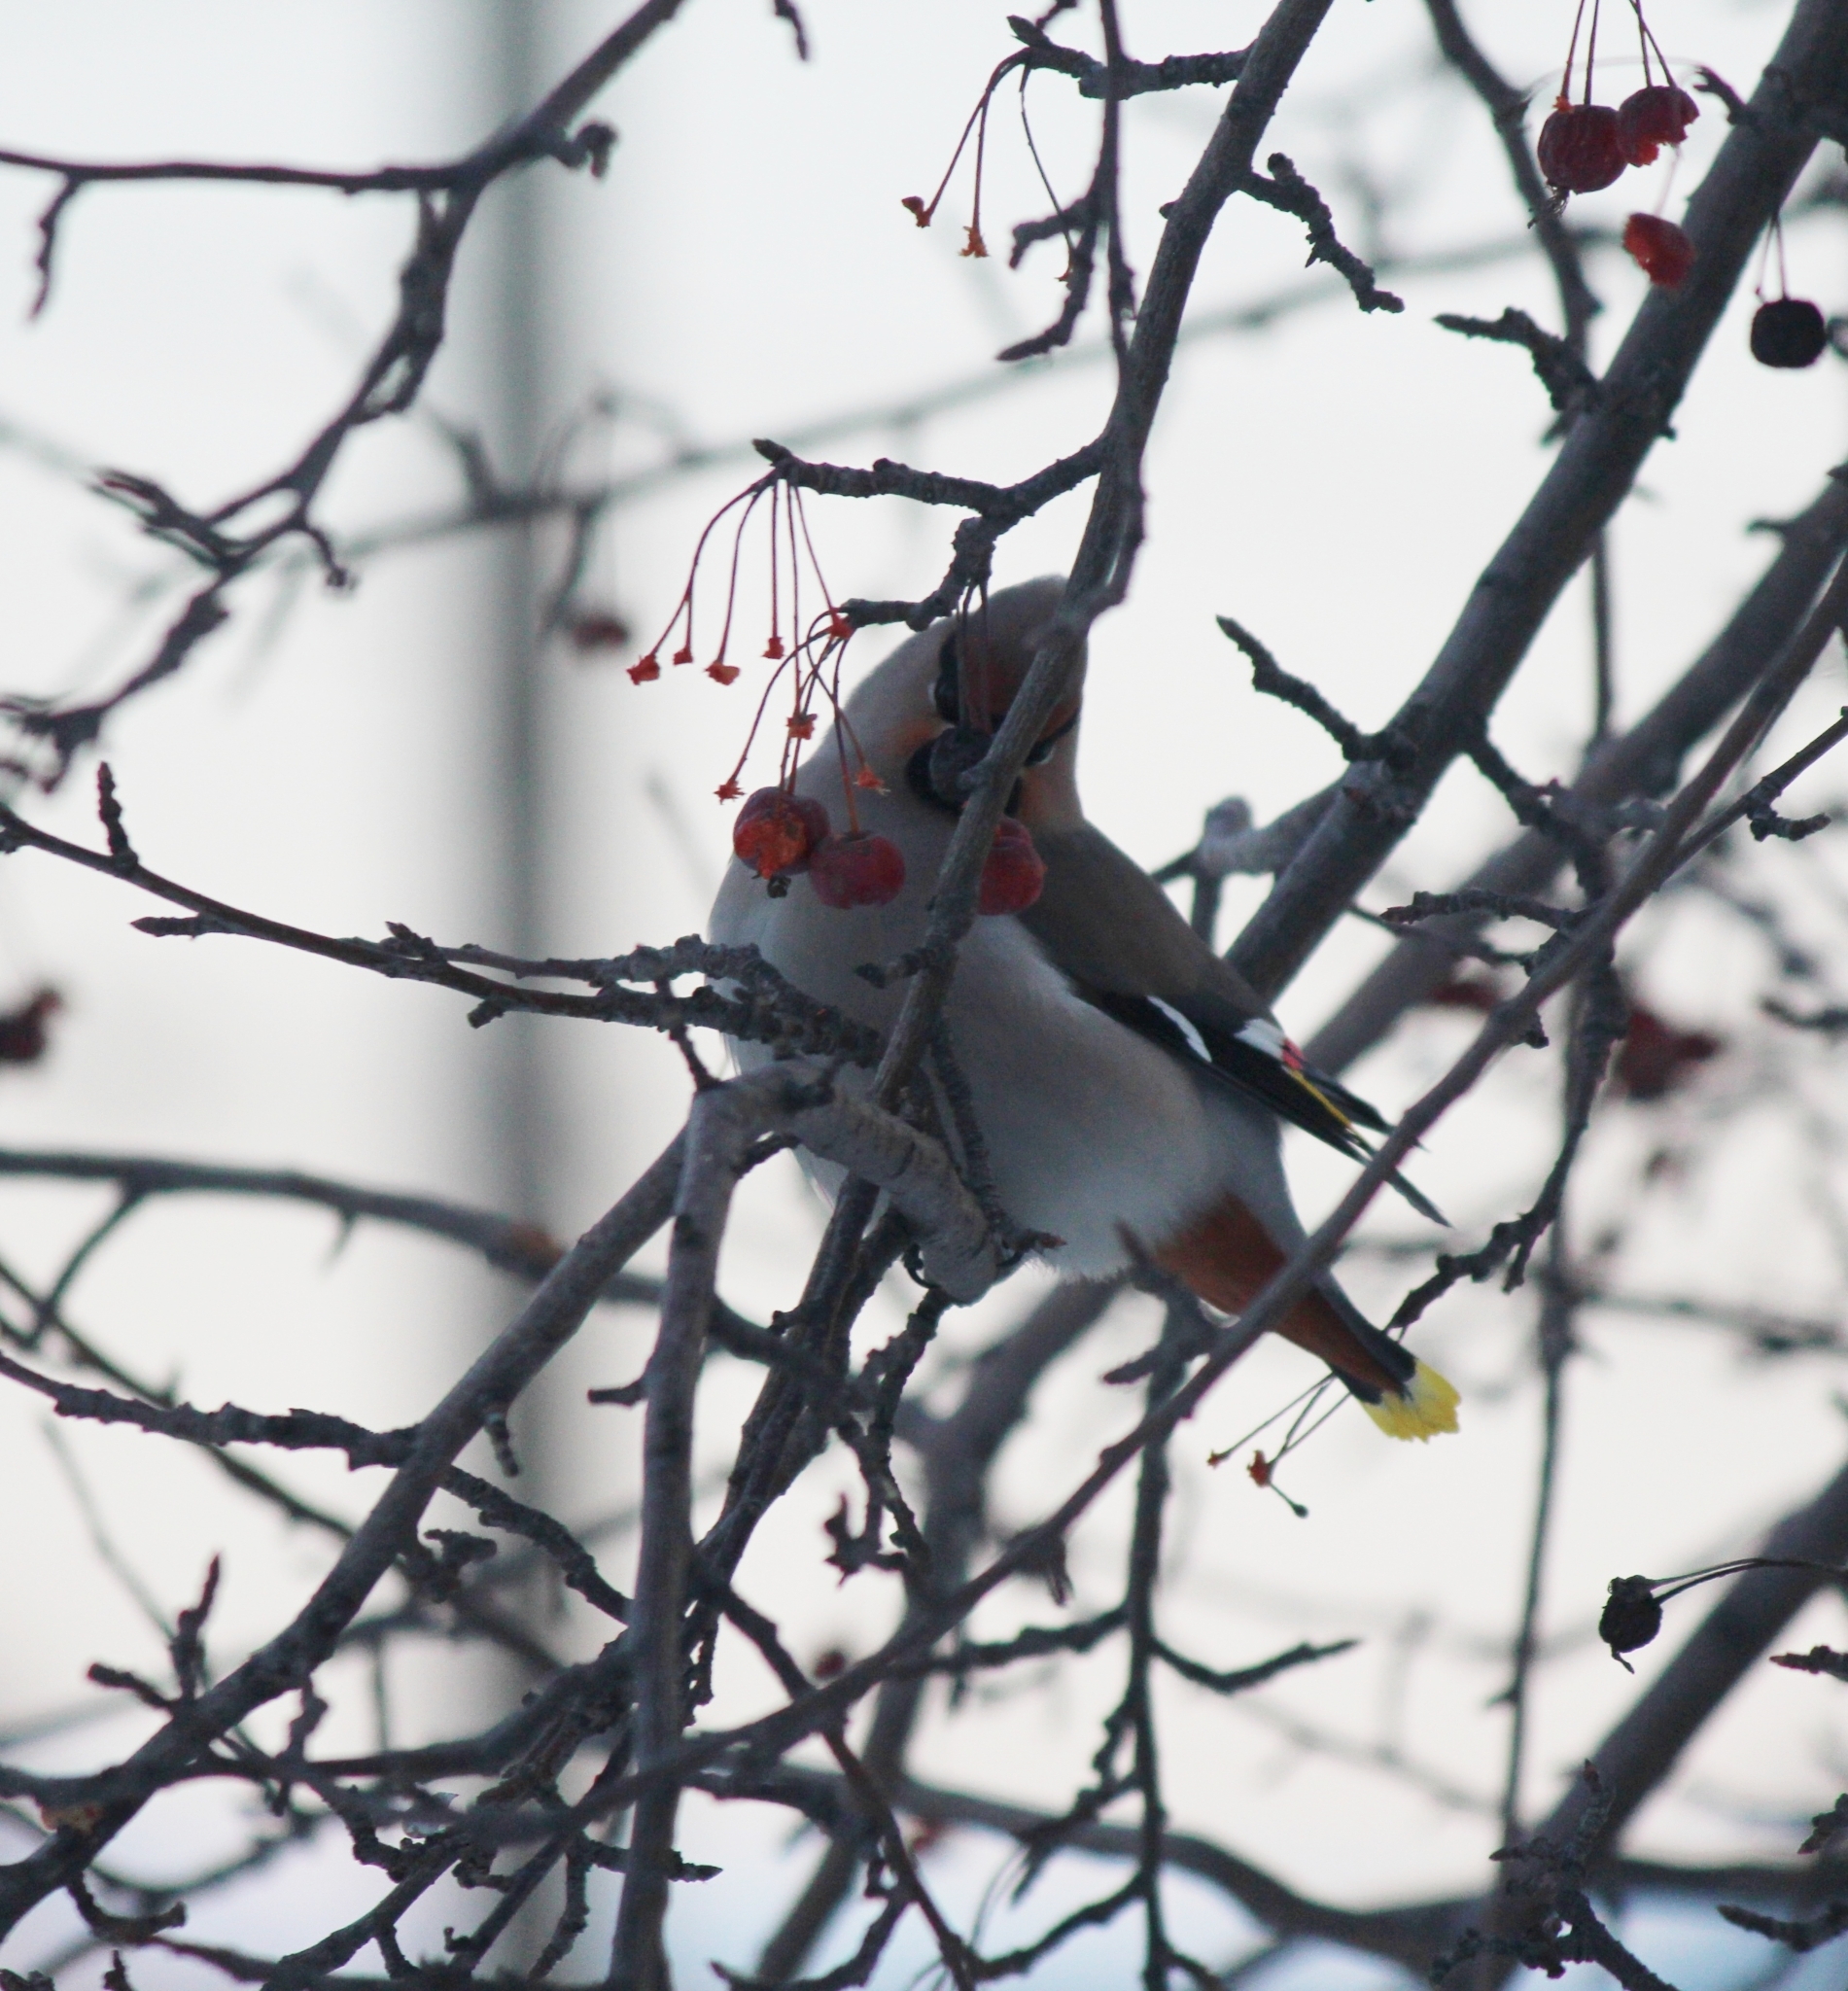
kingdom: Animalia
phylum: Chordata
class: Aves
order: Passeriformes
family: Bombycillidae
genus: Bombycilla
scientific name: Bombycilla garrulus
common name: Bohemian waxwing
